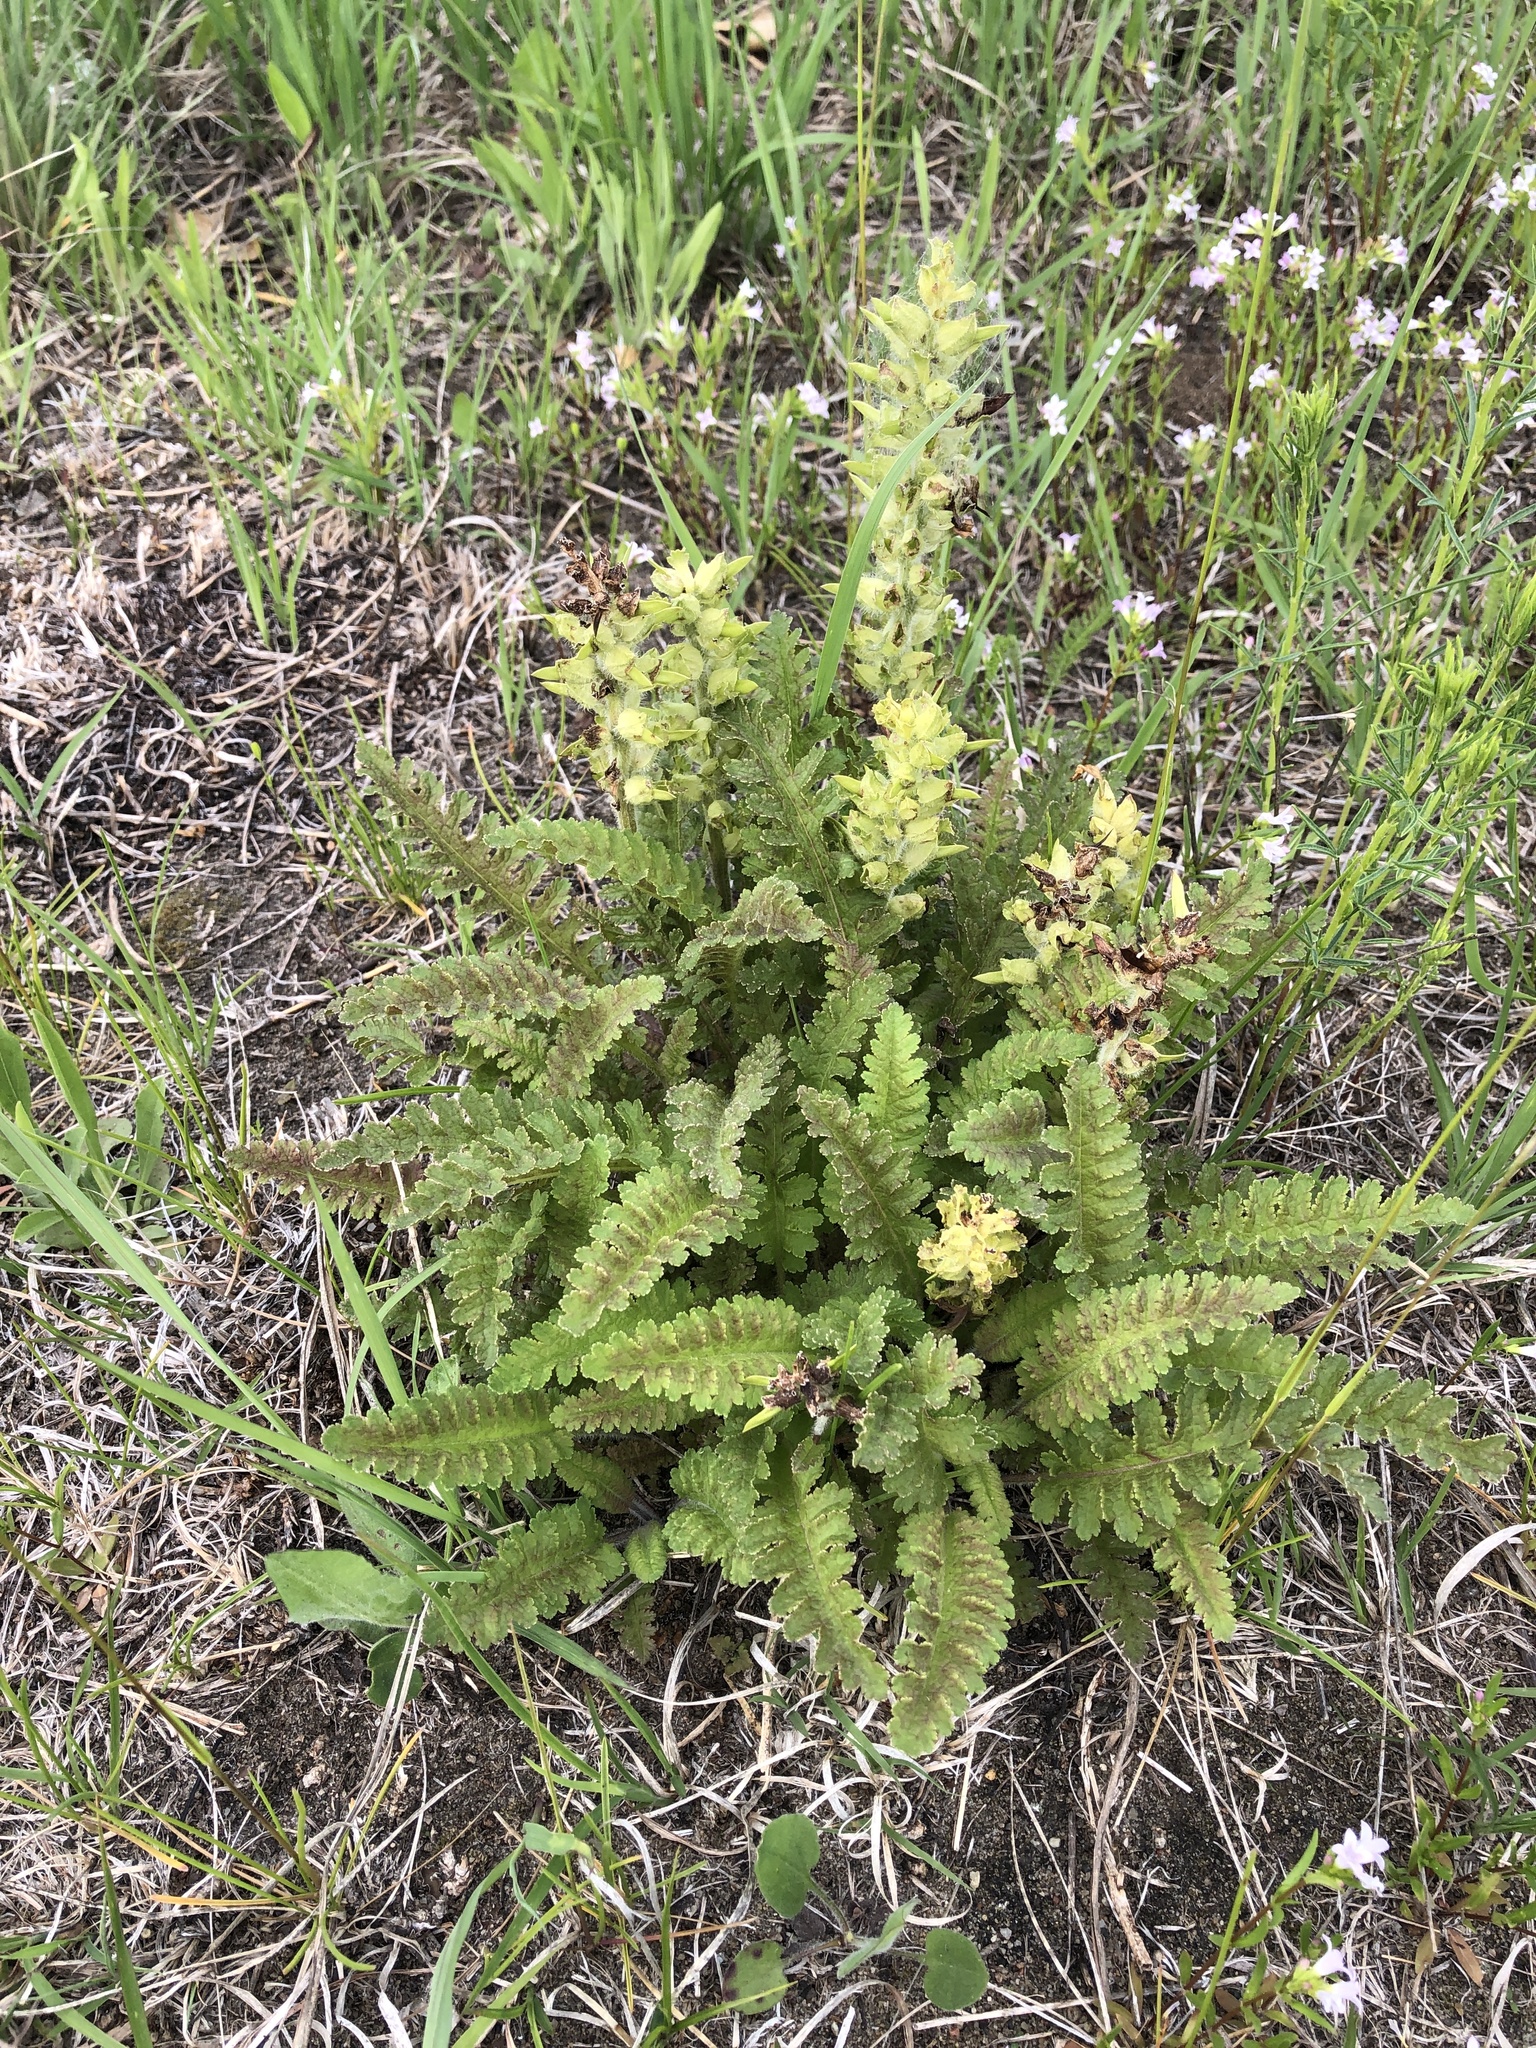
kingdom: Plantae
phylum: Tracheophyta
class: Magnoliopsida
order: Lamiales
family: Orobanchaceae
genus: Pedicularis
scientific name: Pedicularis canadensis
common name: Early lousewort
